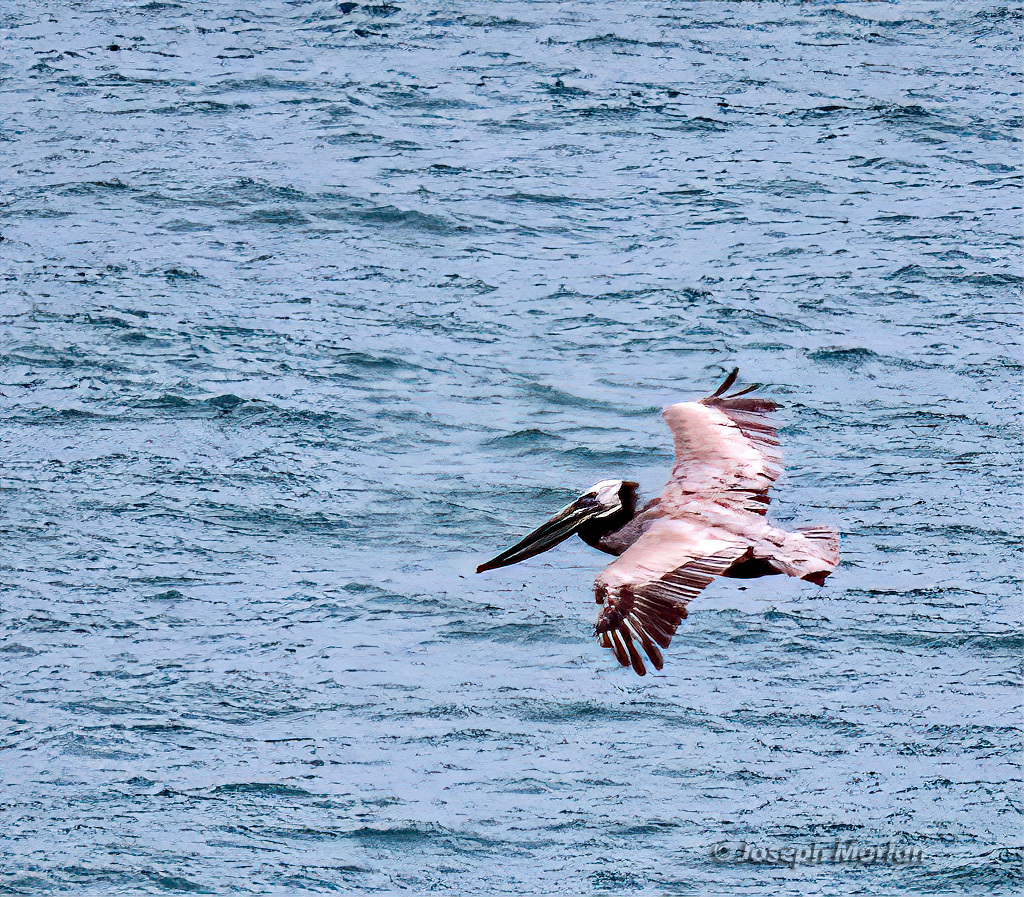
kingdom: Animalia
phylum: Chordata
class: Aves
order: Pelecaniformes
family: Pelecanidae
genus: Pelecanus
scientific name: Pelecanus occidentalis
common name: Brown pelican
